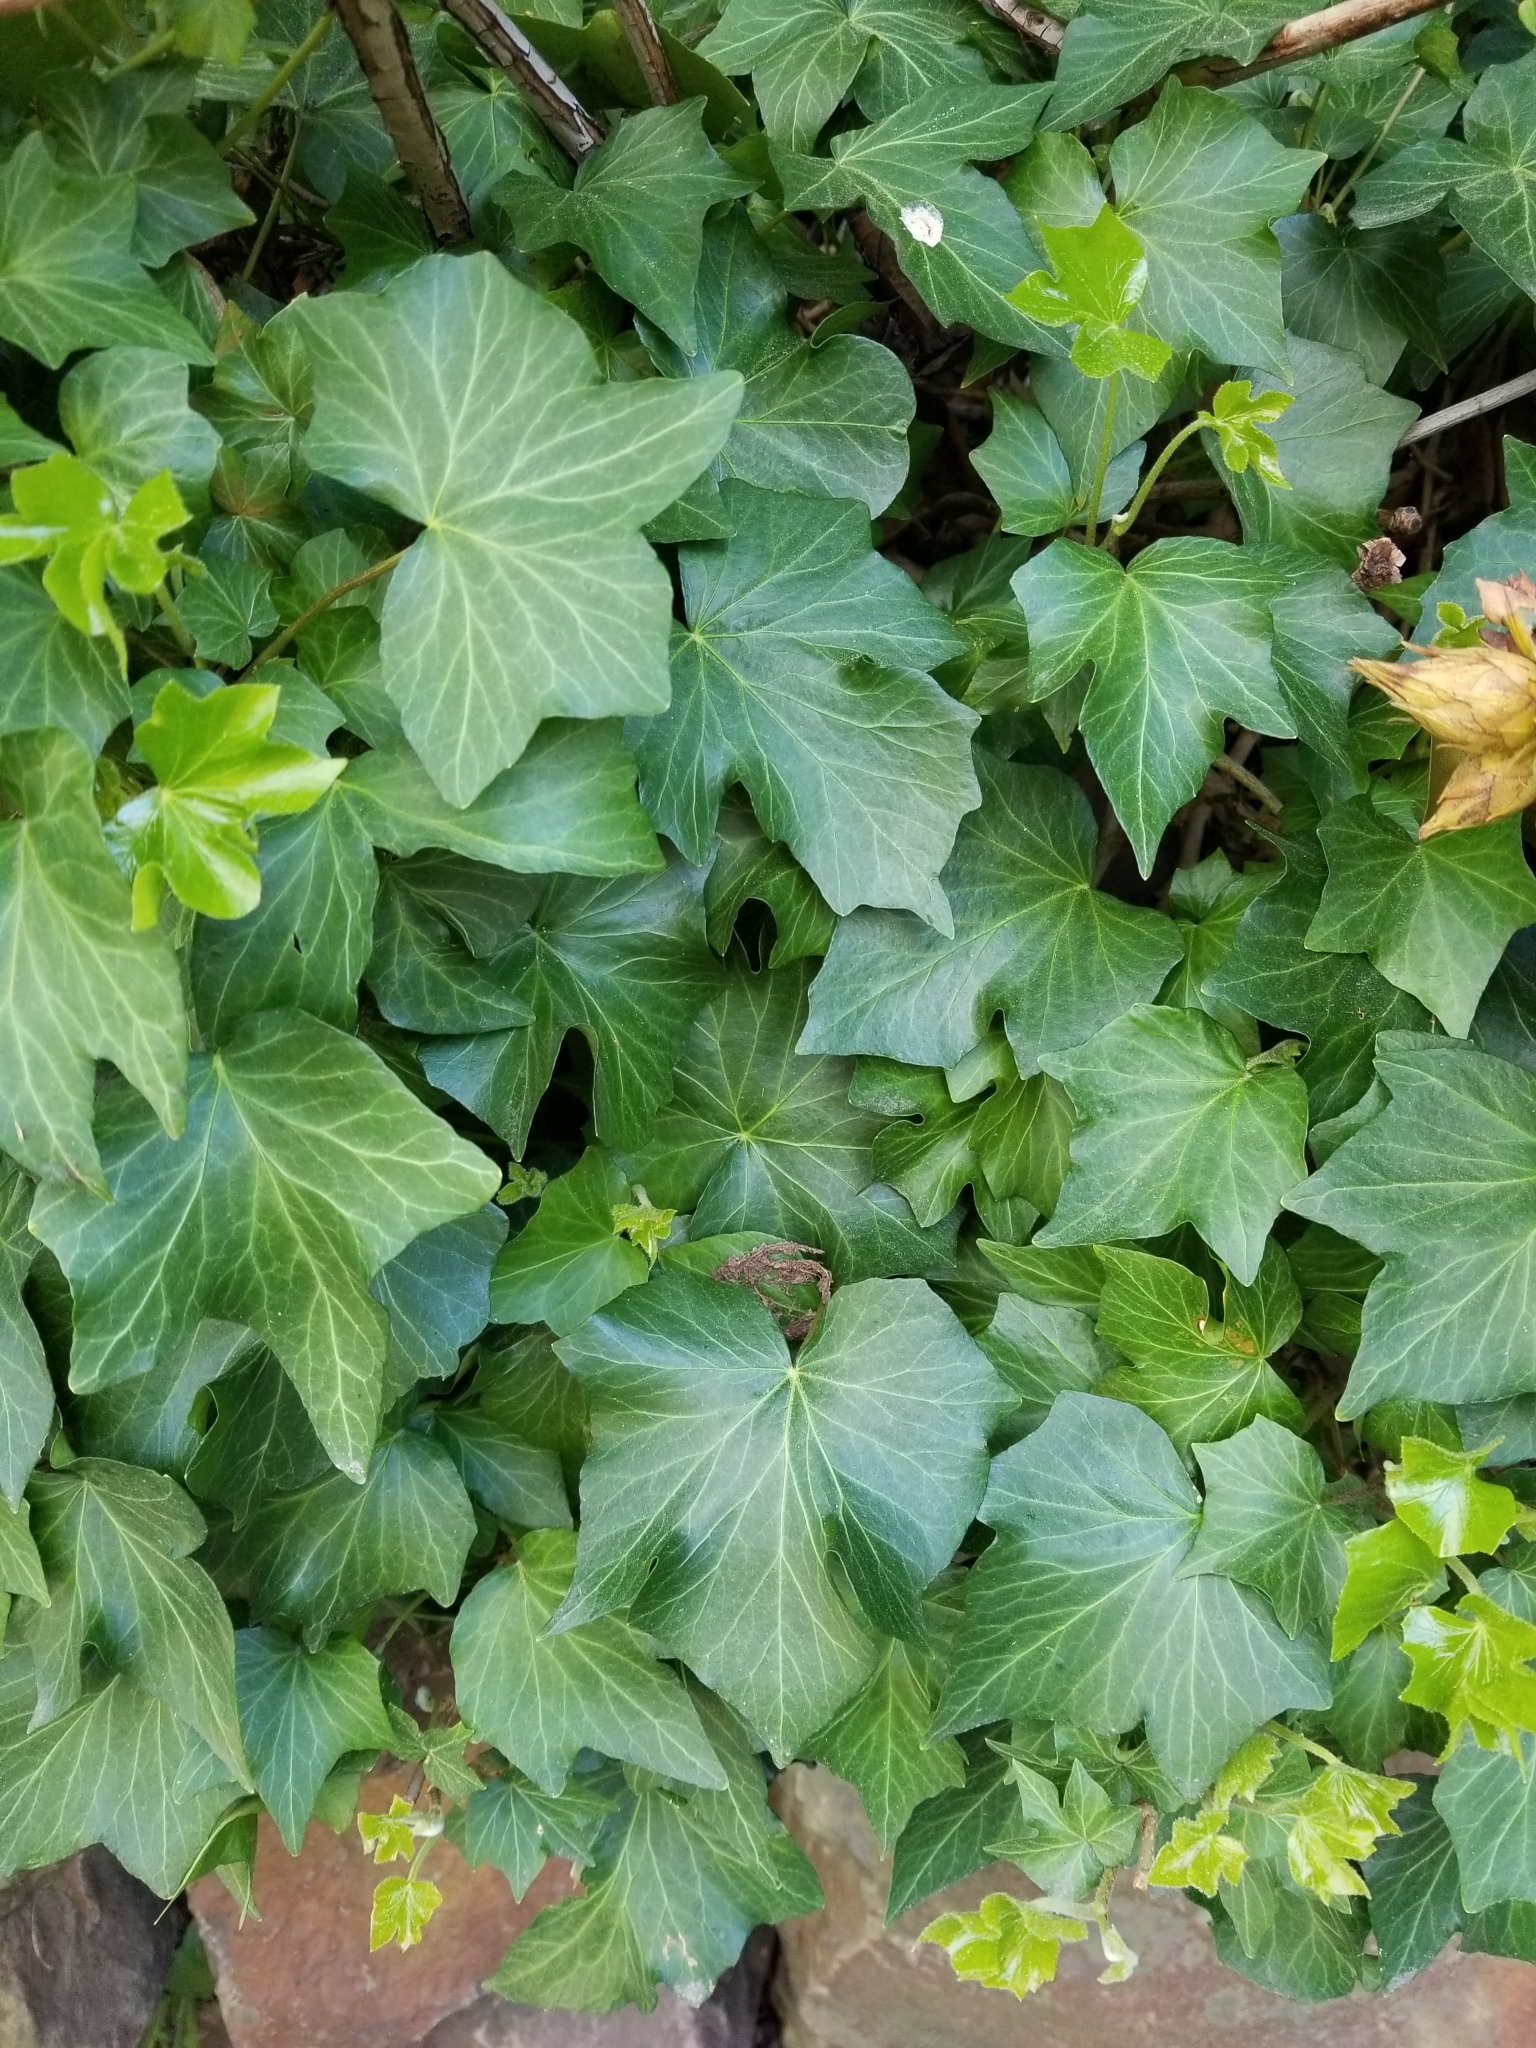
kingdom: Plantae
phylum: Tracheophyta
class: Magnoliopsida
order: Apiales
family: Araliaceae
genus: Hedera
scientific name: Hedera helix
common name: Ivy
